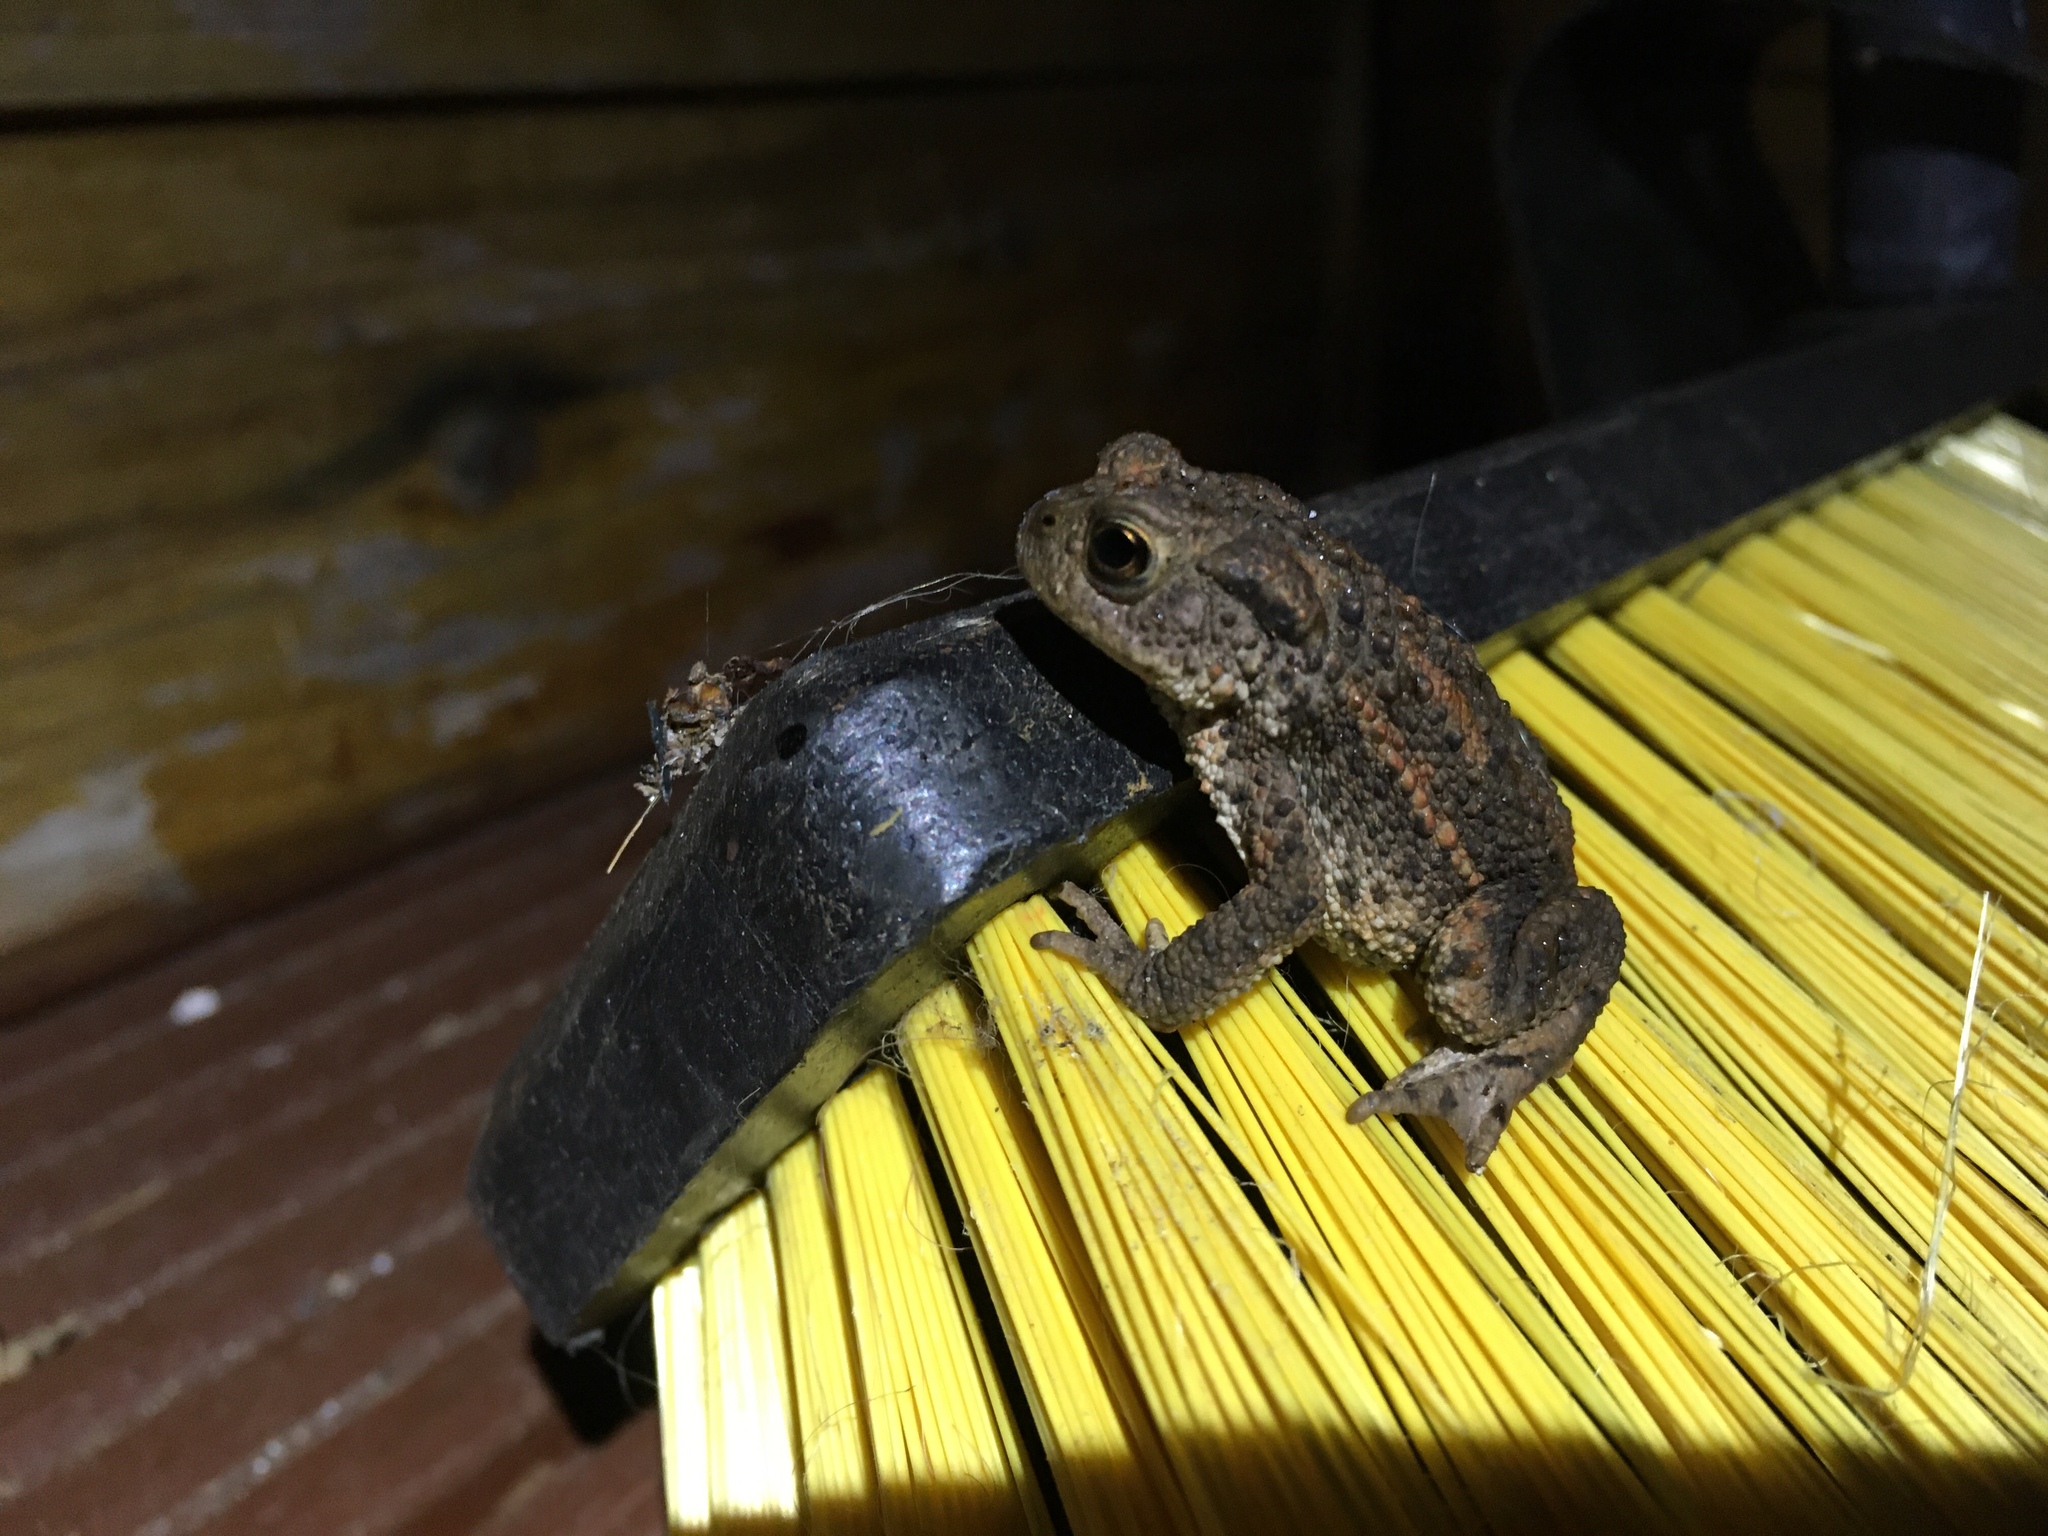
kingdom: Animalia
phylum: Chordata
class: Amphibia
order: Anura
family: Bufonidae
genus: Bufo
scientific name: Bufo bufo
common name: Common toad
